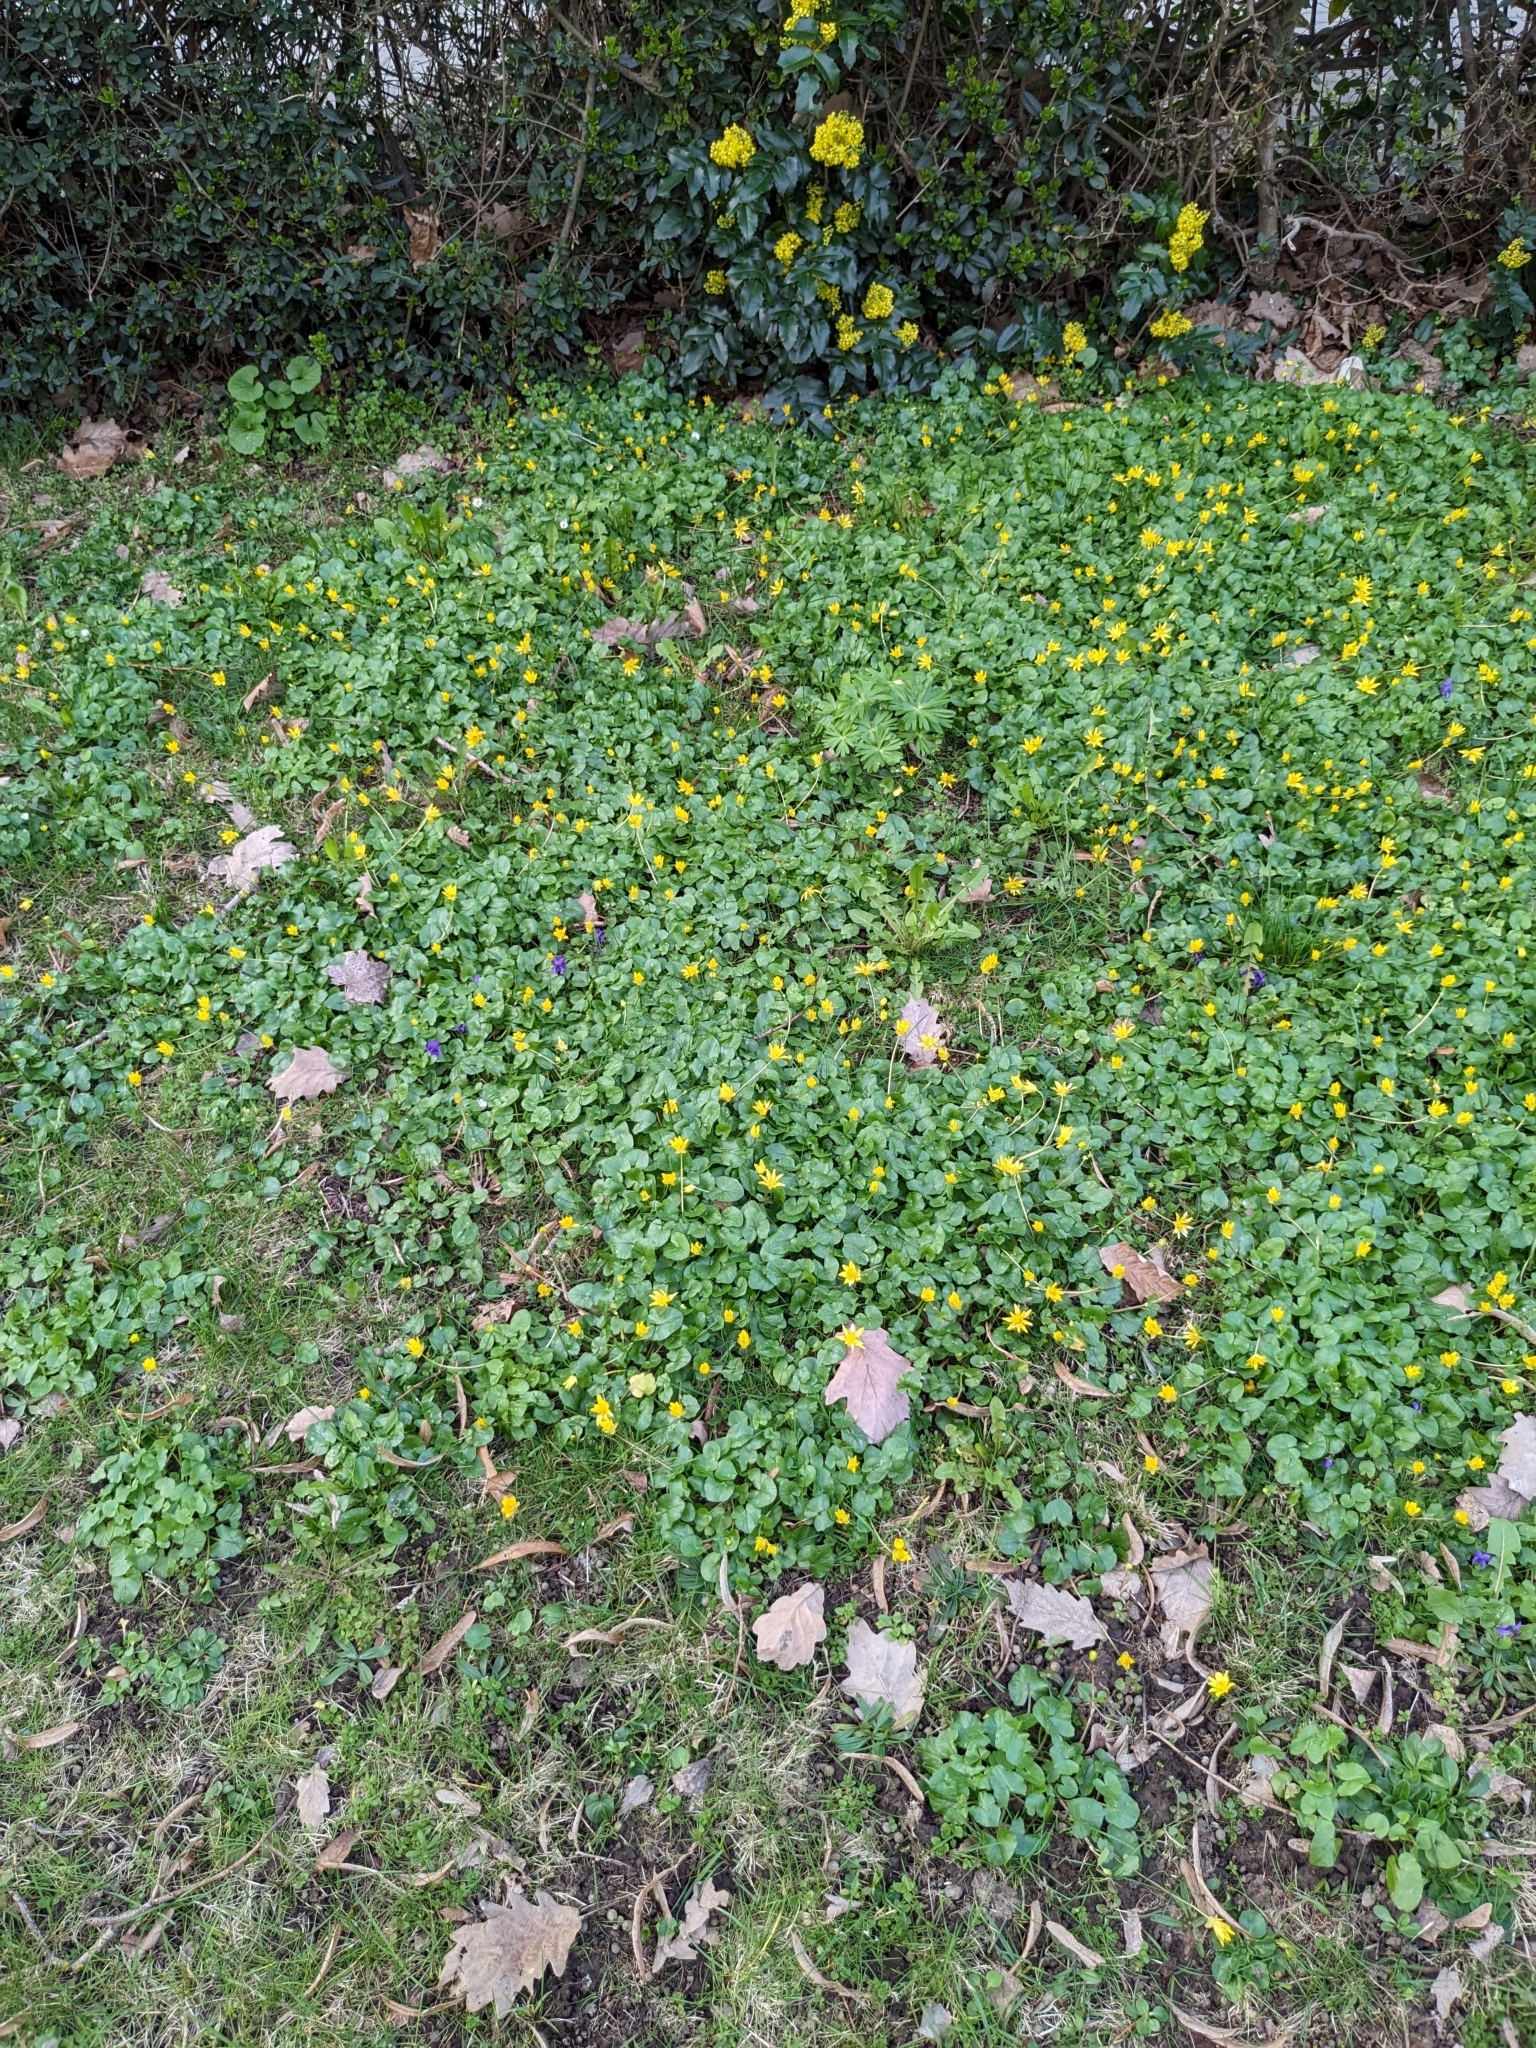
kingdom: Plantae
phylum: Tracheophyta
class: Magnoliopsida
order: Ranunculales
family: Ranunculaceae
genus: Ficaria
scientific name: Ficaria verna
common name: Lesser celandine
